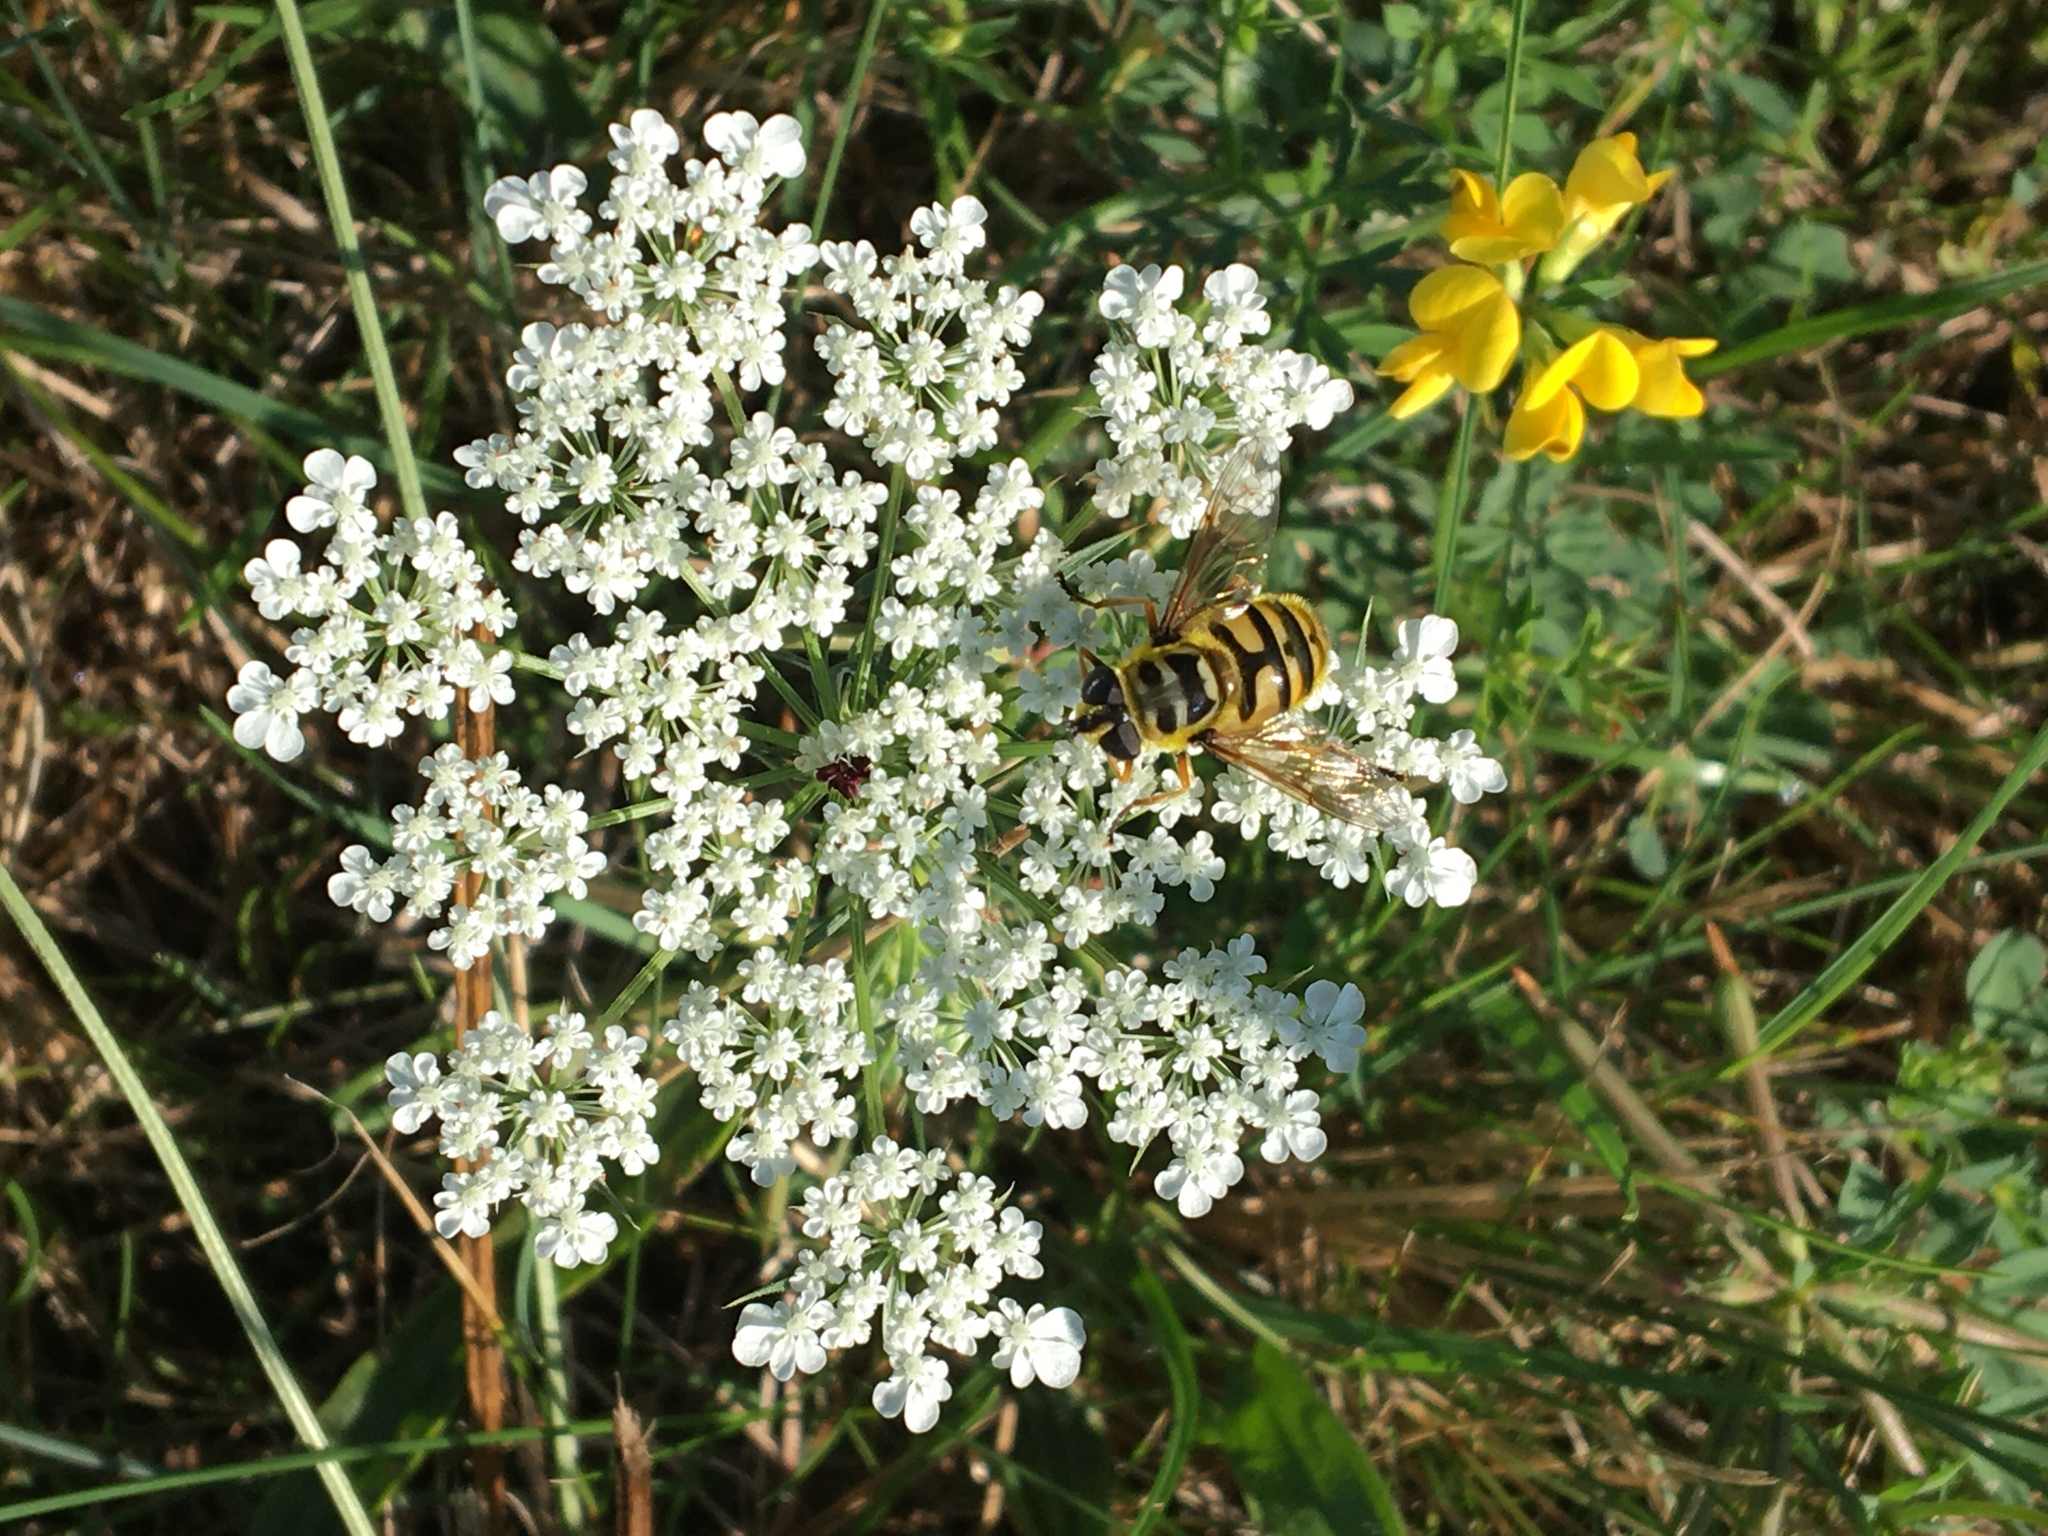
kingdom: Animalia
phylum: Arthropoda
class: Insecta
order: Diptera
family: Syrphidae
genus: Myathropa
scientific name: Myathropa florea
